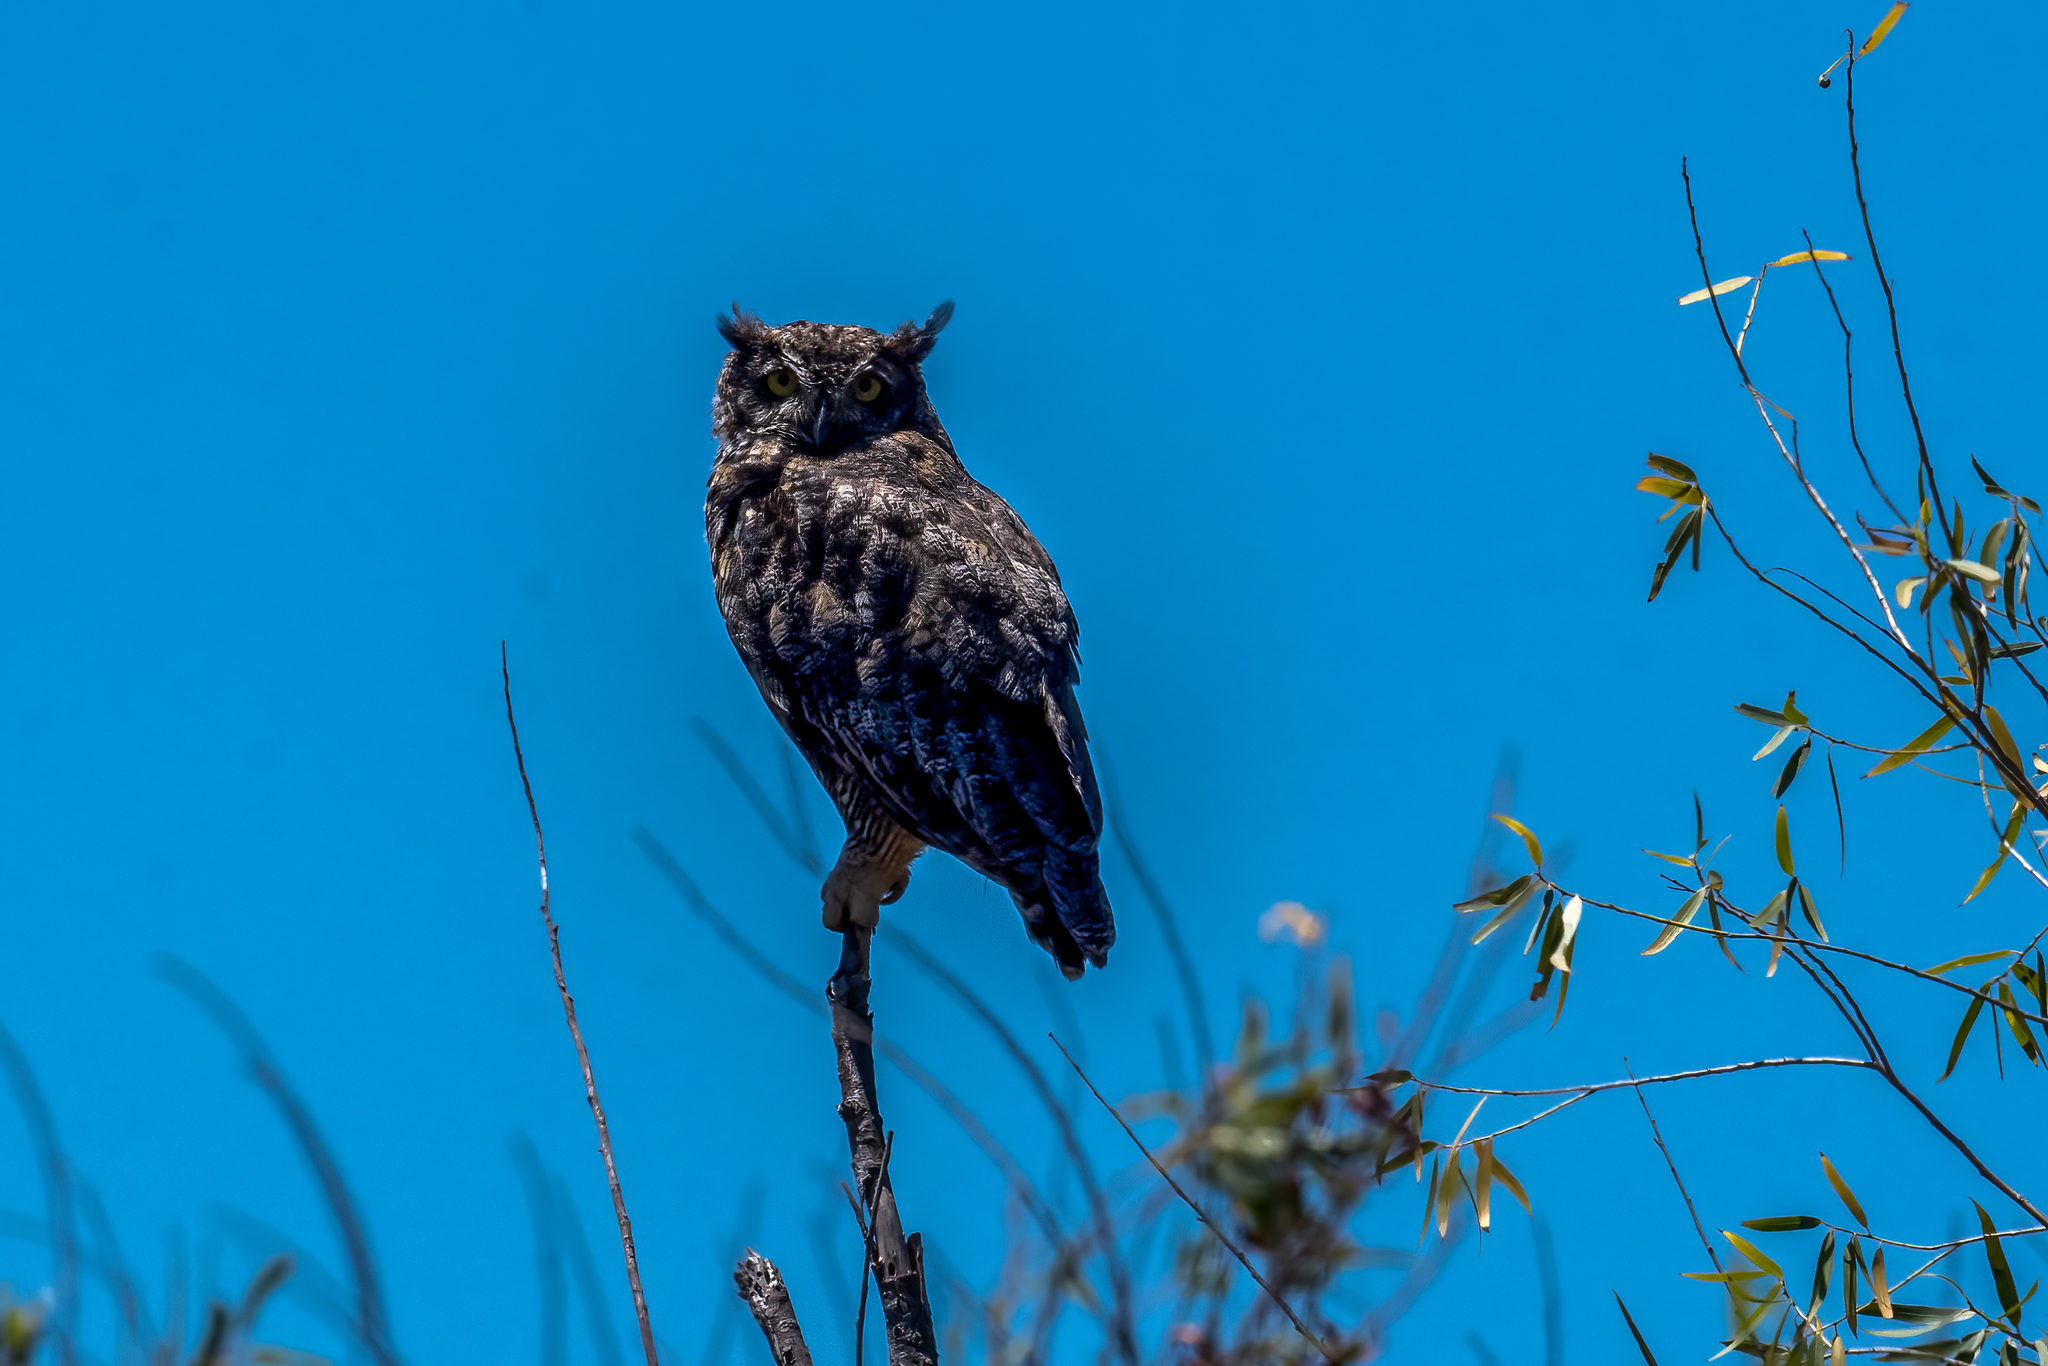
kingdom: Animalia
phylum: Chordata
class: Aves
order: Strigiformes
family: Strigidae
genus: Bubo
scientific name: Bubo virginianus
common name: Great horned owl
